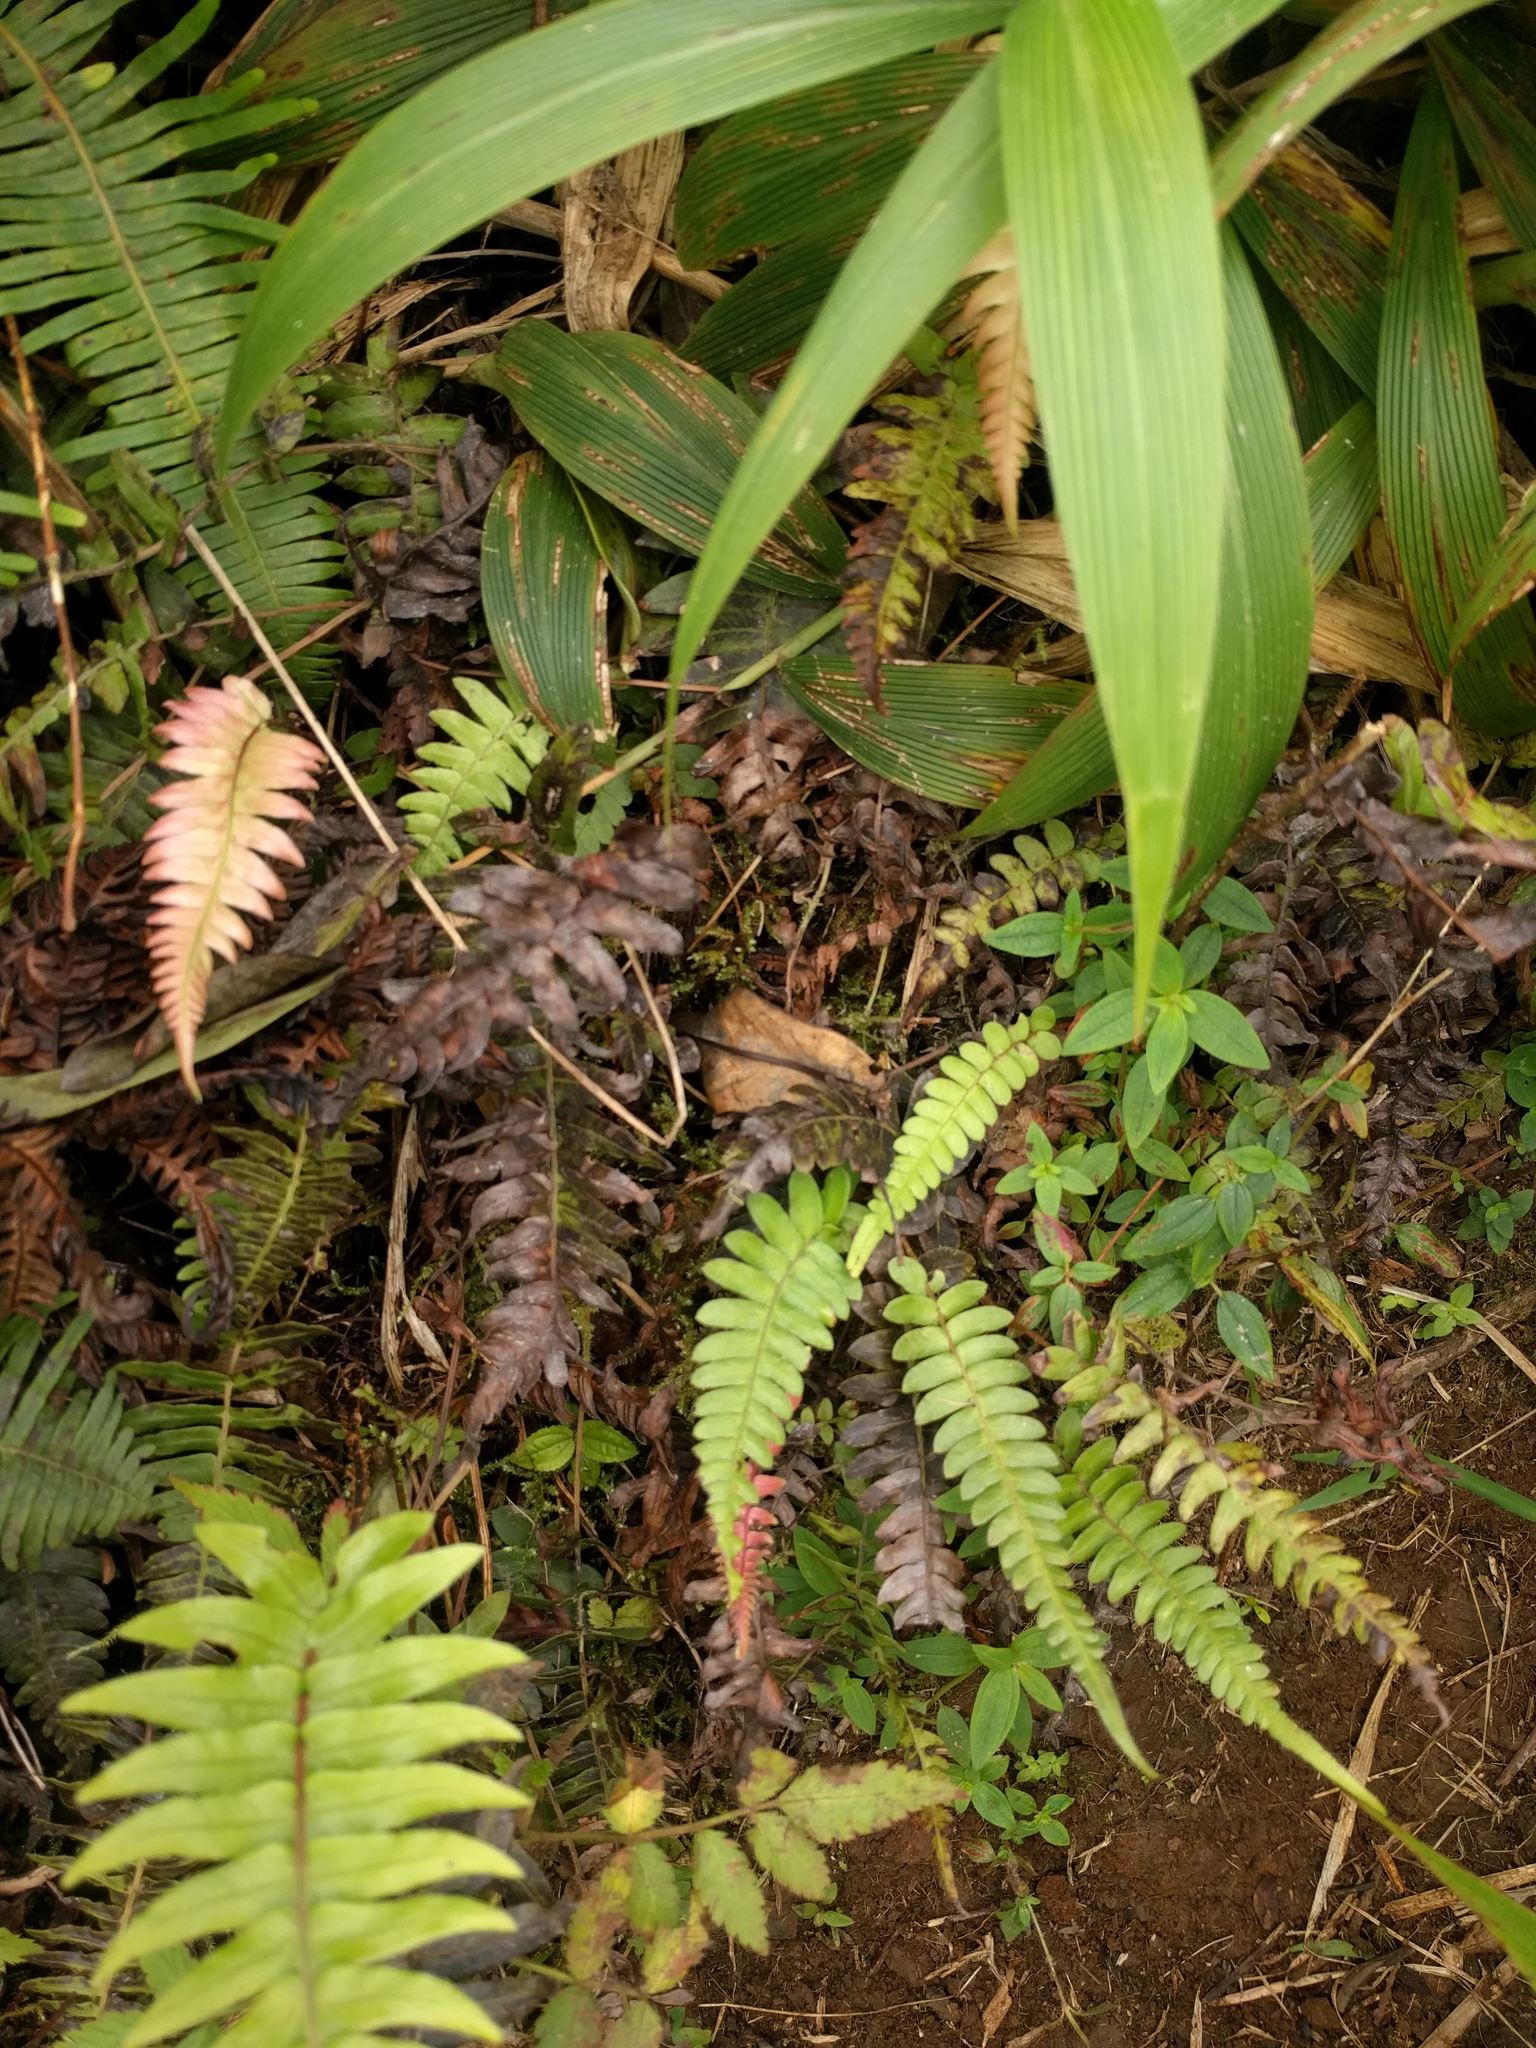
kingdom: Plantae
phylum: Tracheophyta
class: Polypodiopsida
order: Polypodiales
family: Blechnaceae
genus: Blechnum
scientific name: Blechnum appendiculatum
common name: Palm fern
